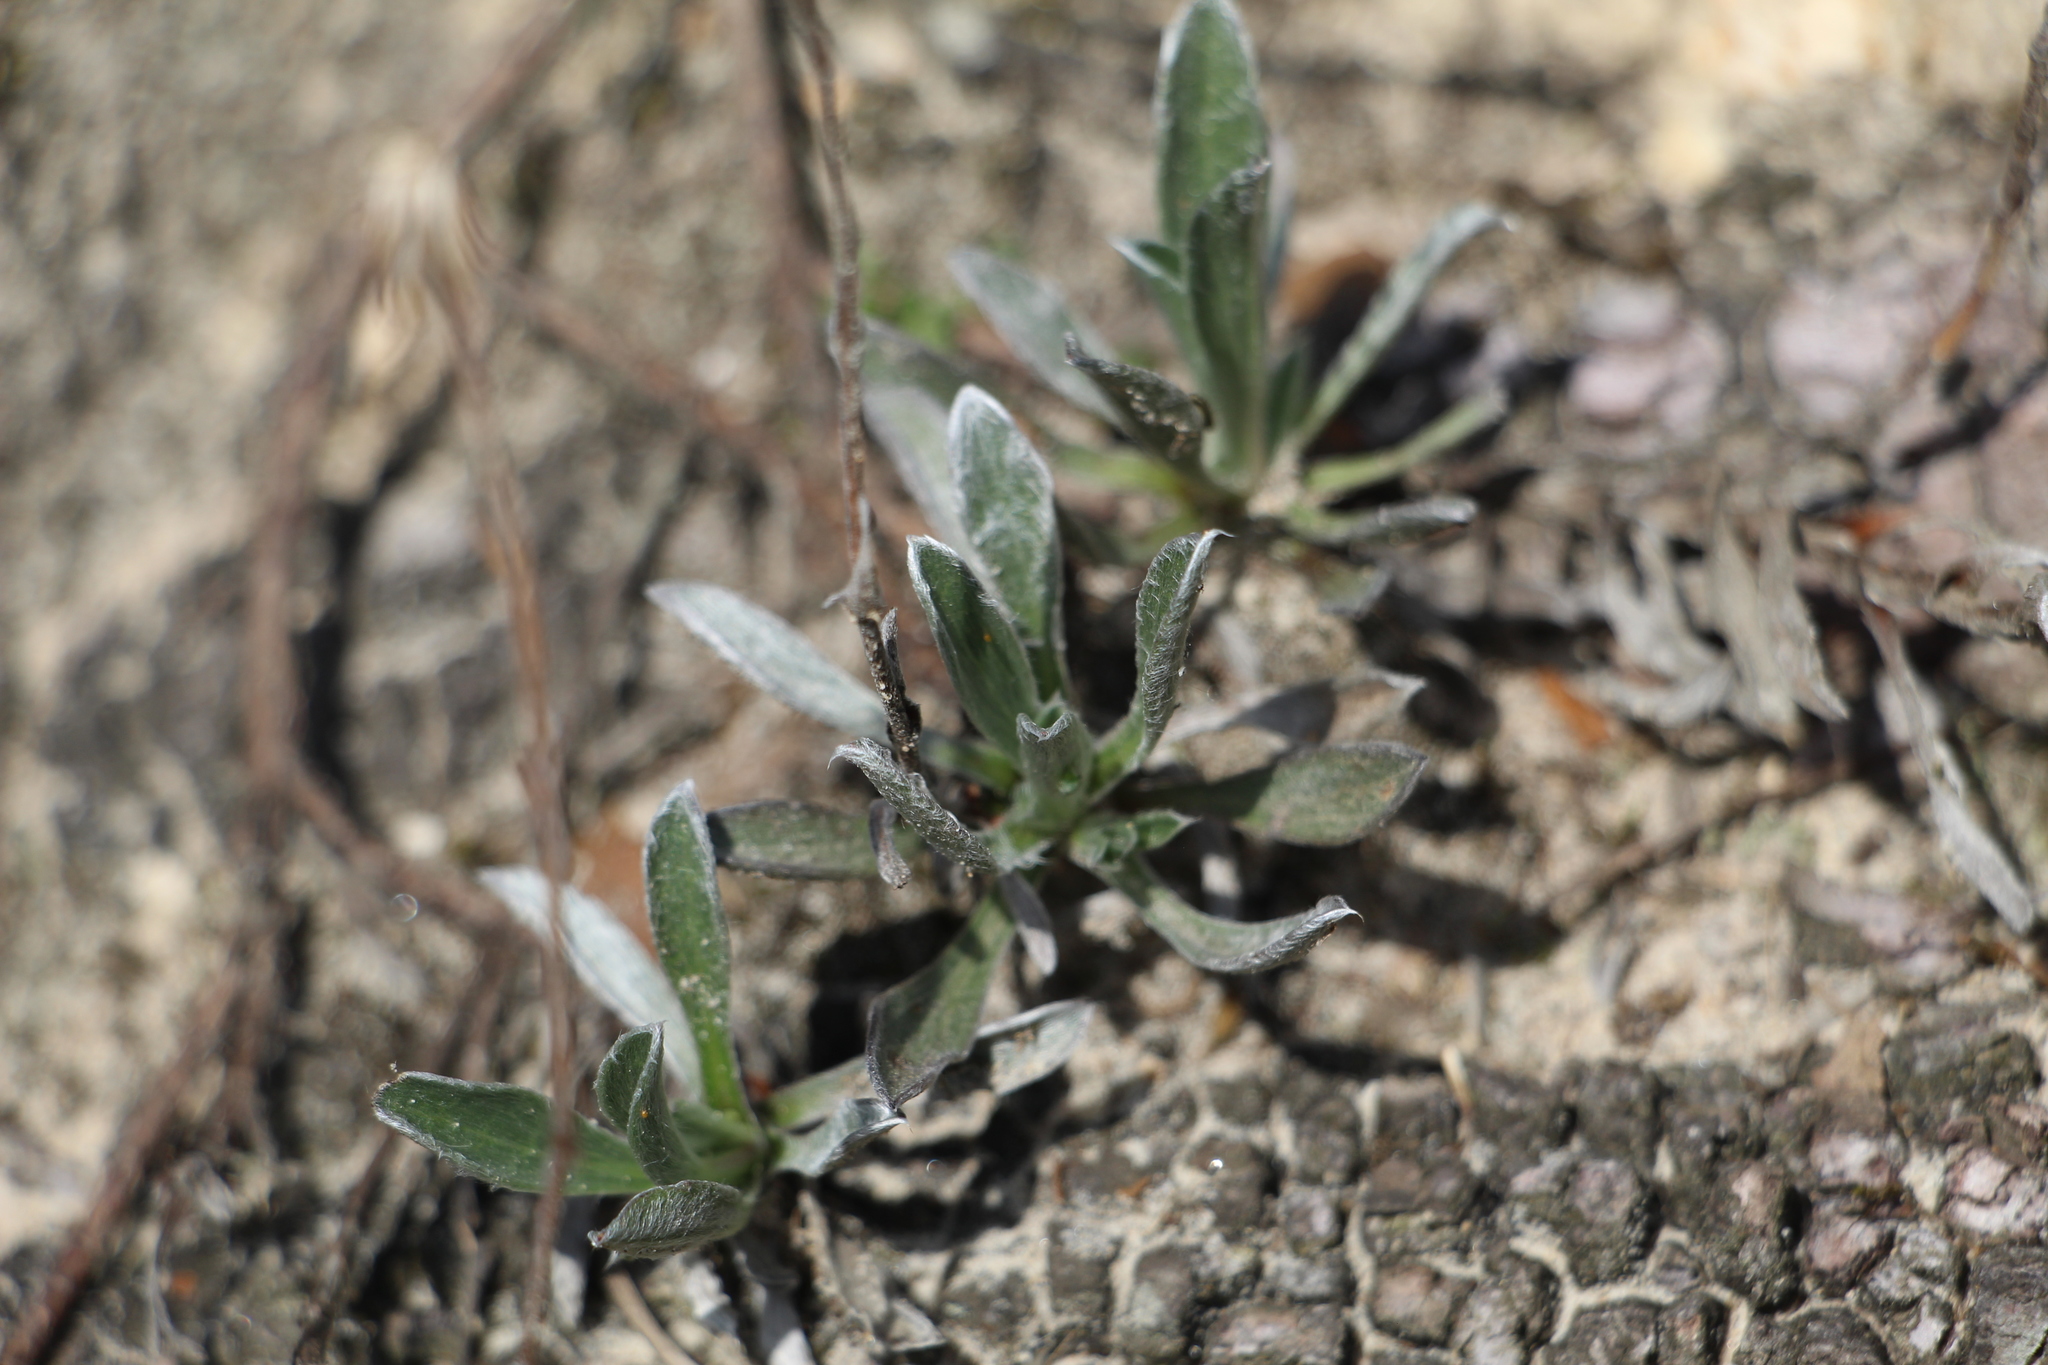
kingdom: Plantae
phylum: Tracheophyta
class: Magnoliopsida
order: Asterales
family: Asteraceae
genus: Noticastrum
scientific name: Noticastrum marginatum
